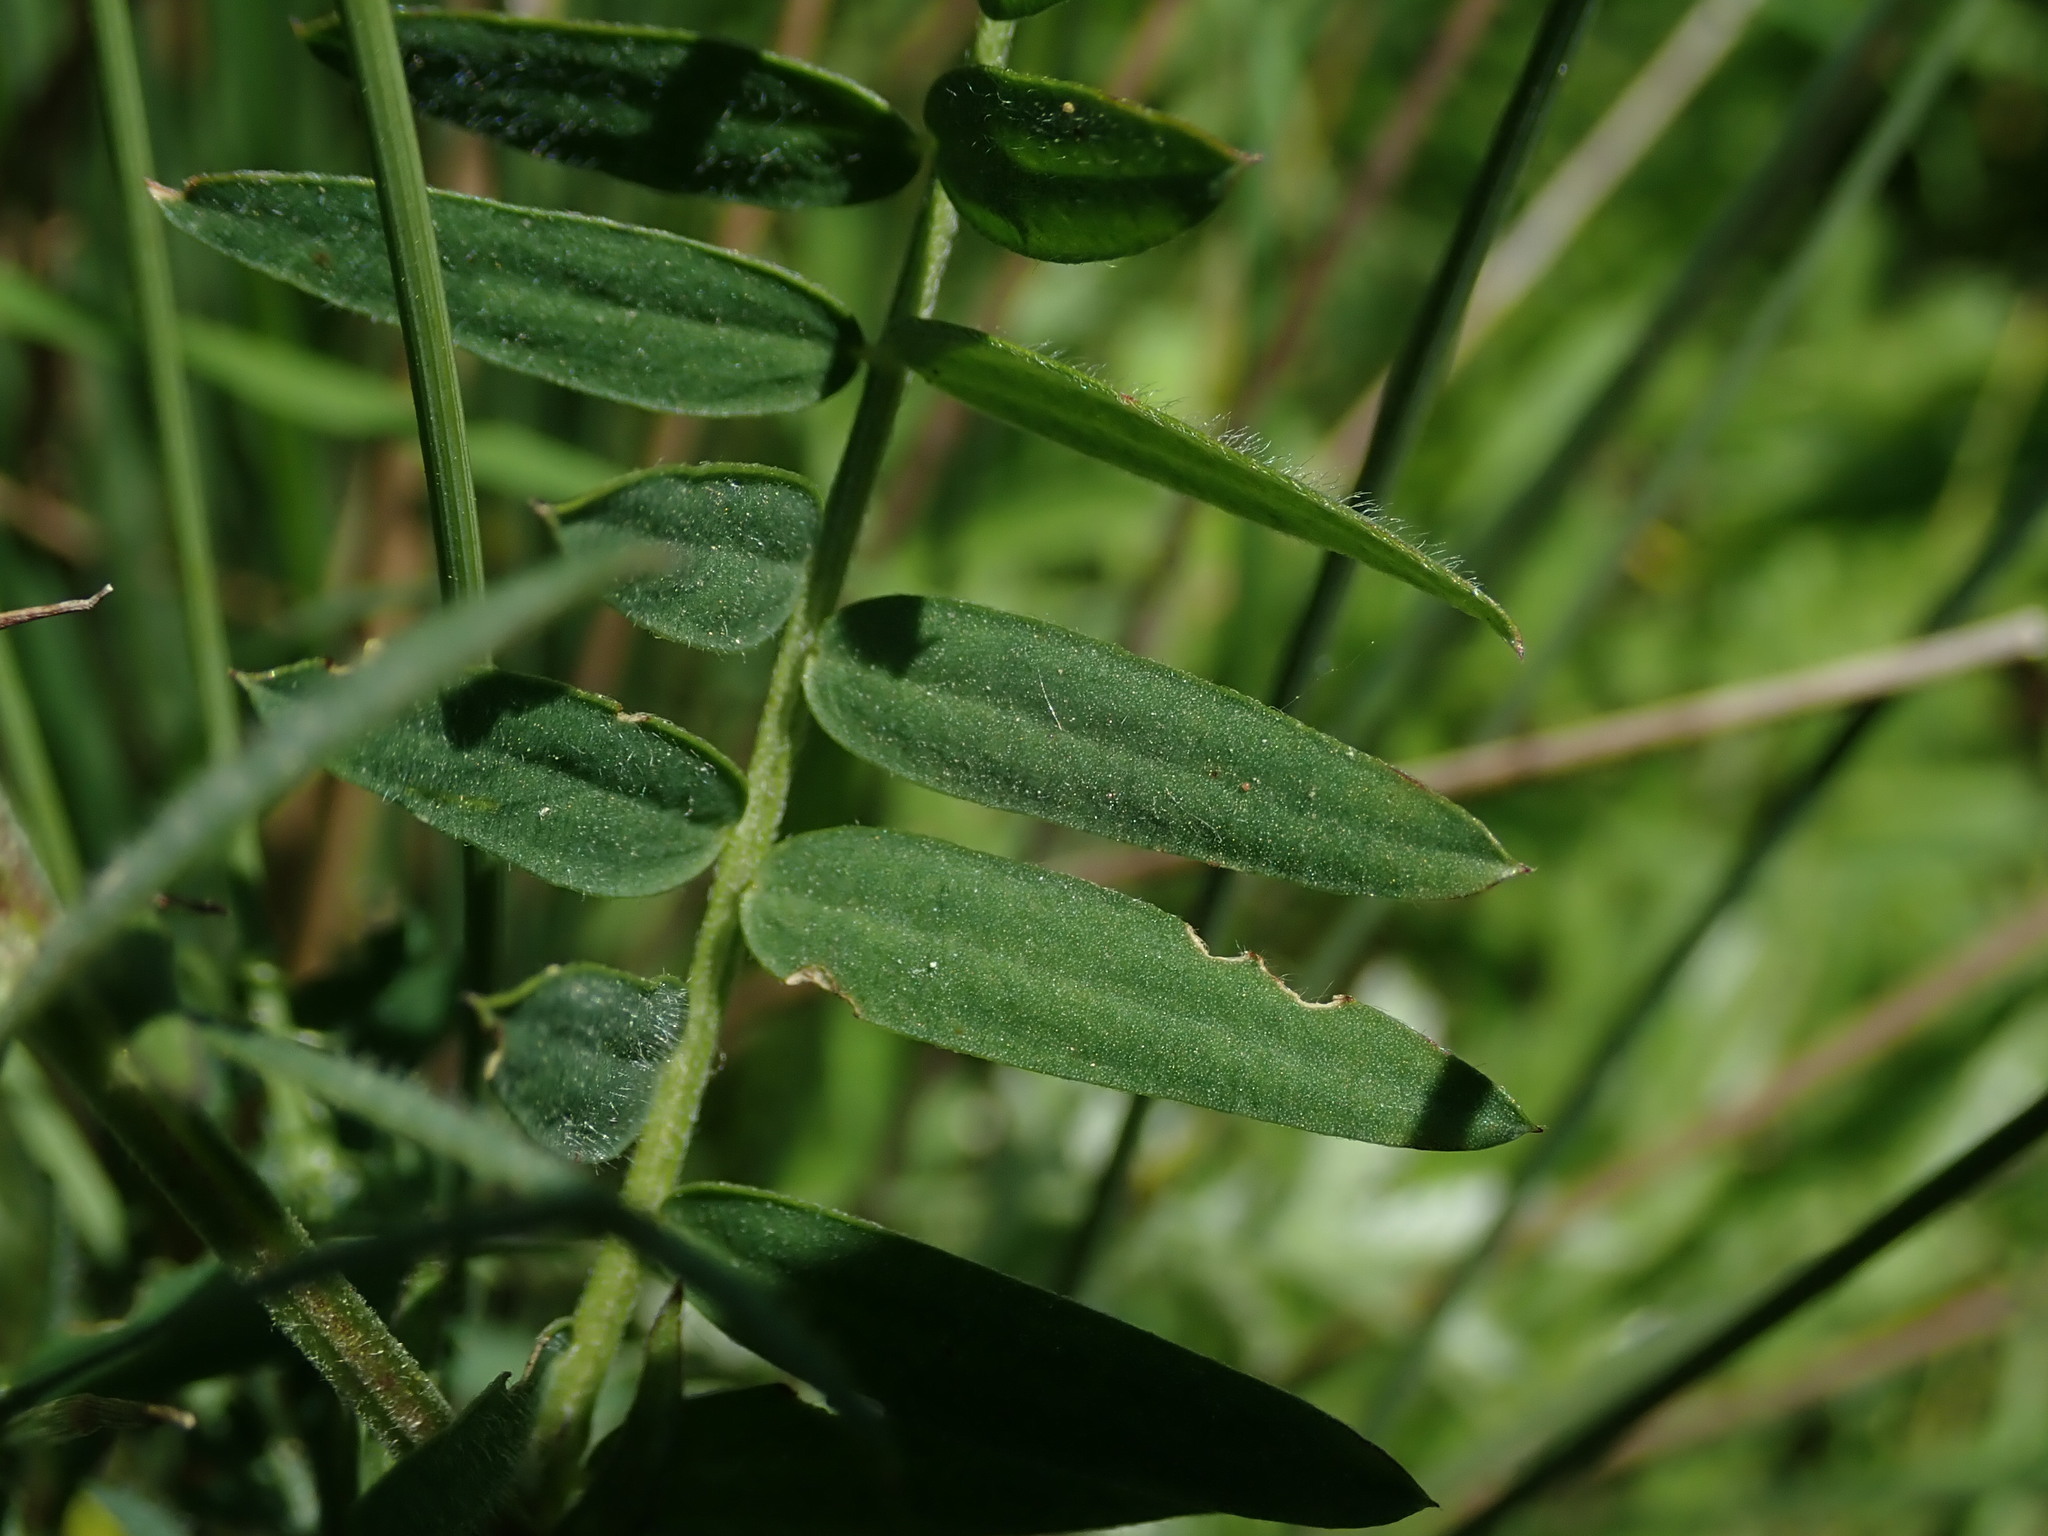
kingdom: Plantae
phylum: Tracheophyta
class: Magnoliopsida
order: Fabales
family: Fabaceae
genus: Vicia
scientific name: Vicia cracca
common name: Bird vetch
